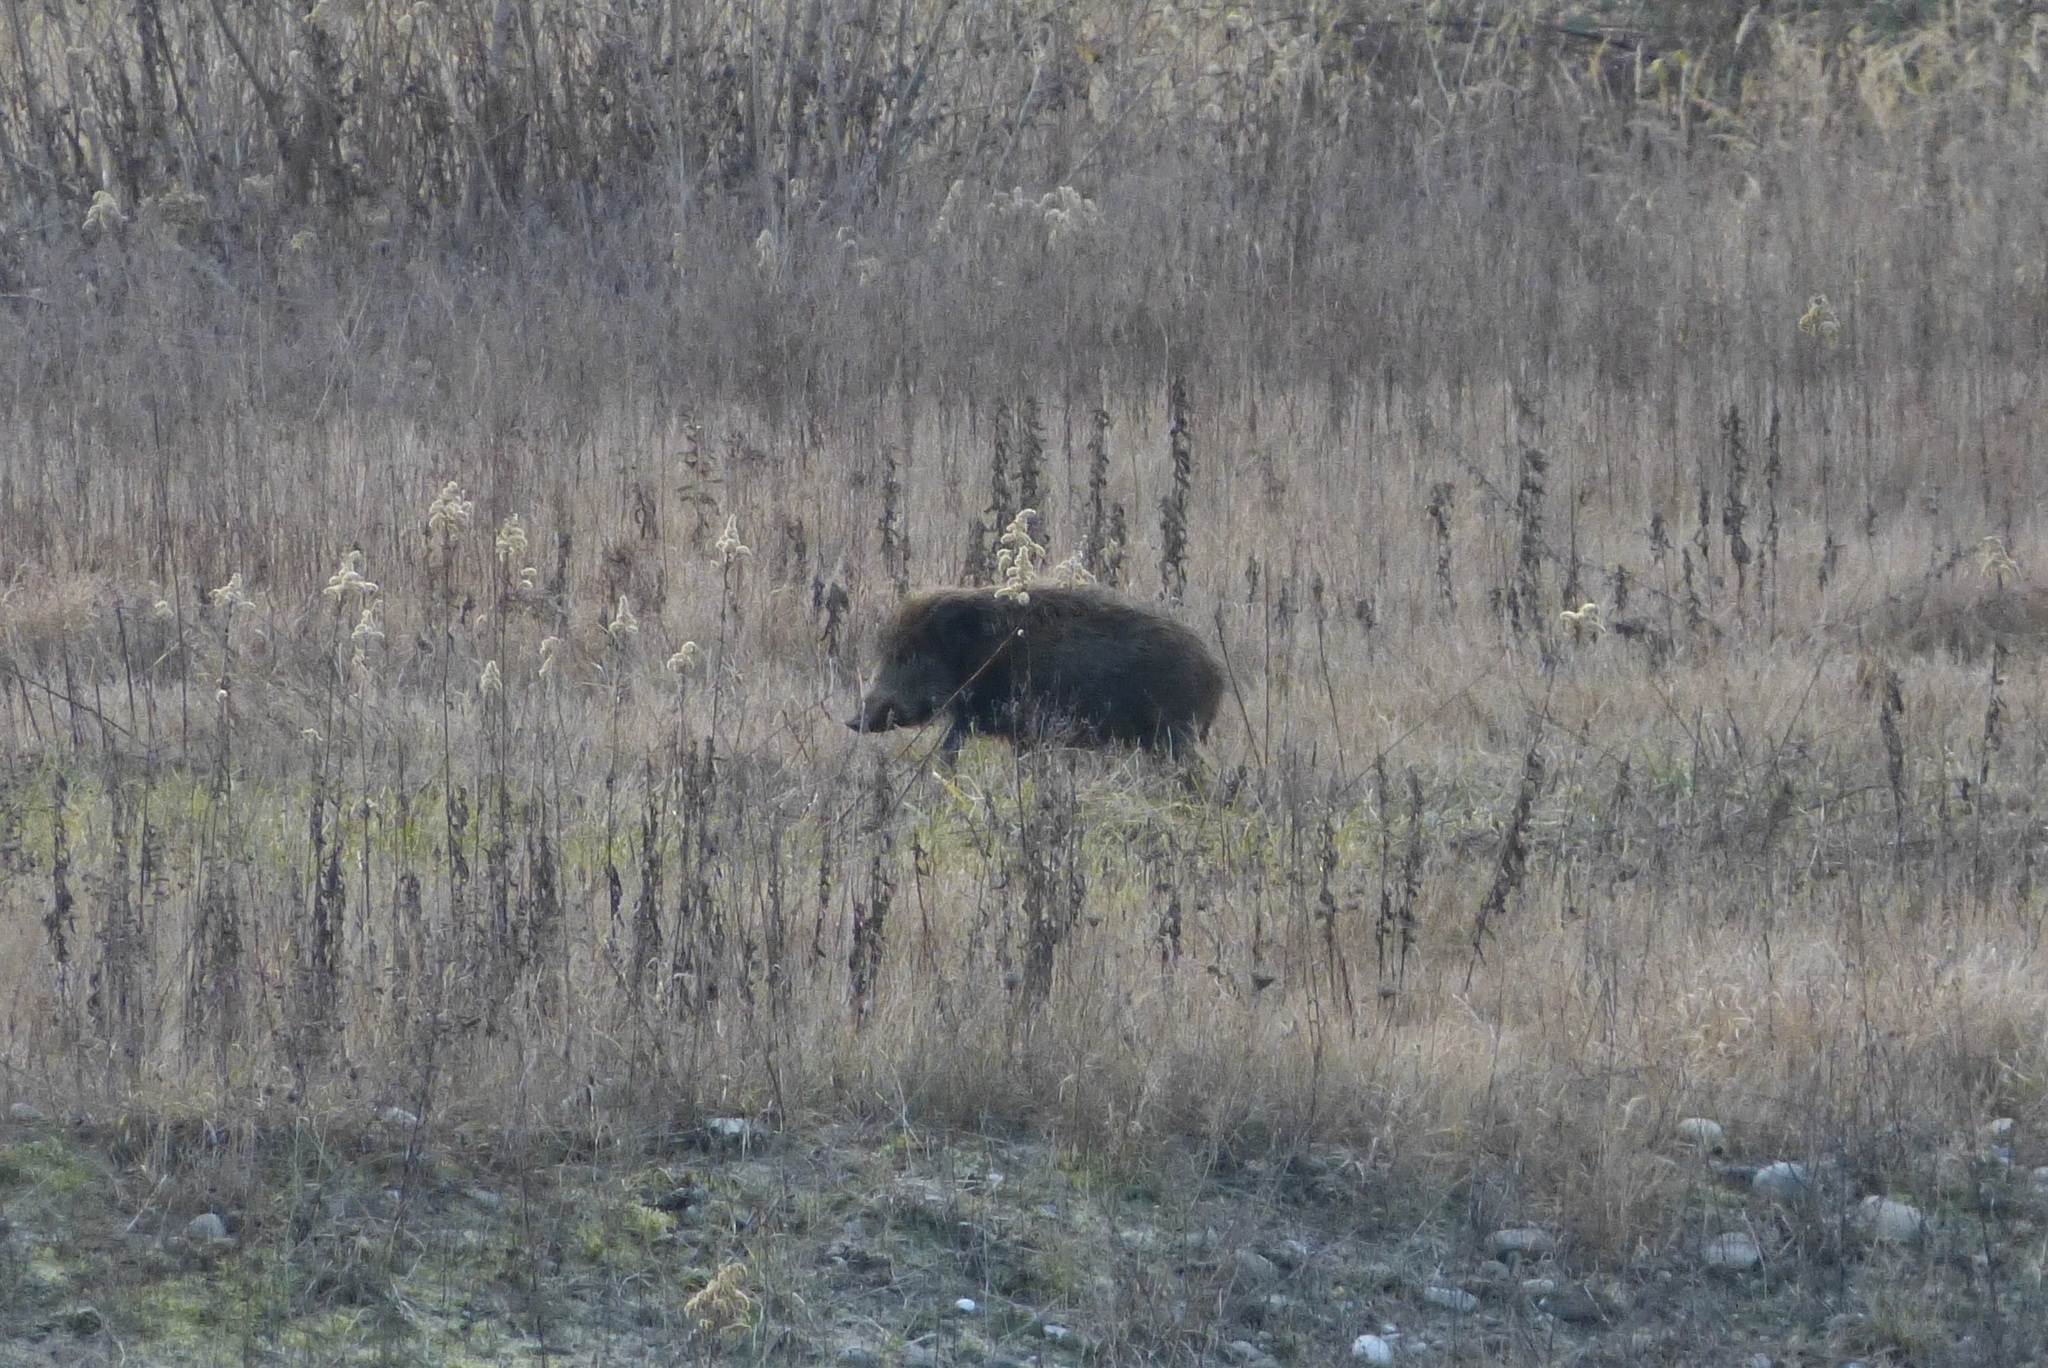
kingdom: Animalia
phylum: Chordata
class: Mammalia
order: Artiodactyla
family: Suidae
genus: Sus
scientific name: Sus scrofa
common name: Wild boar
